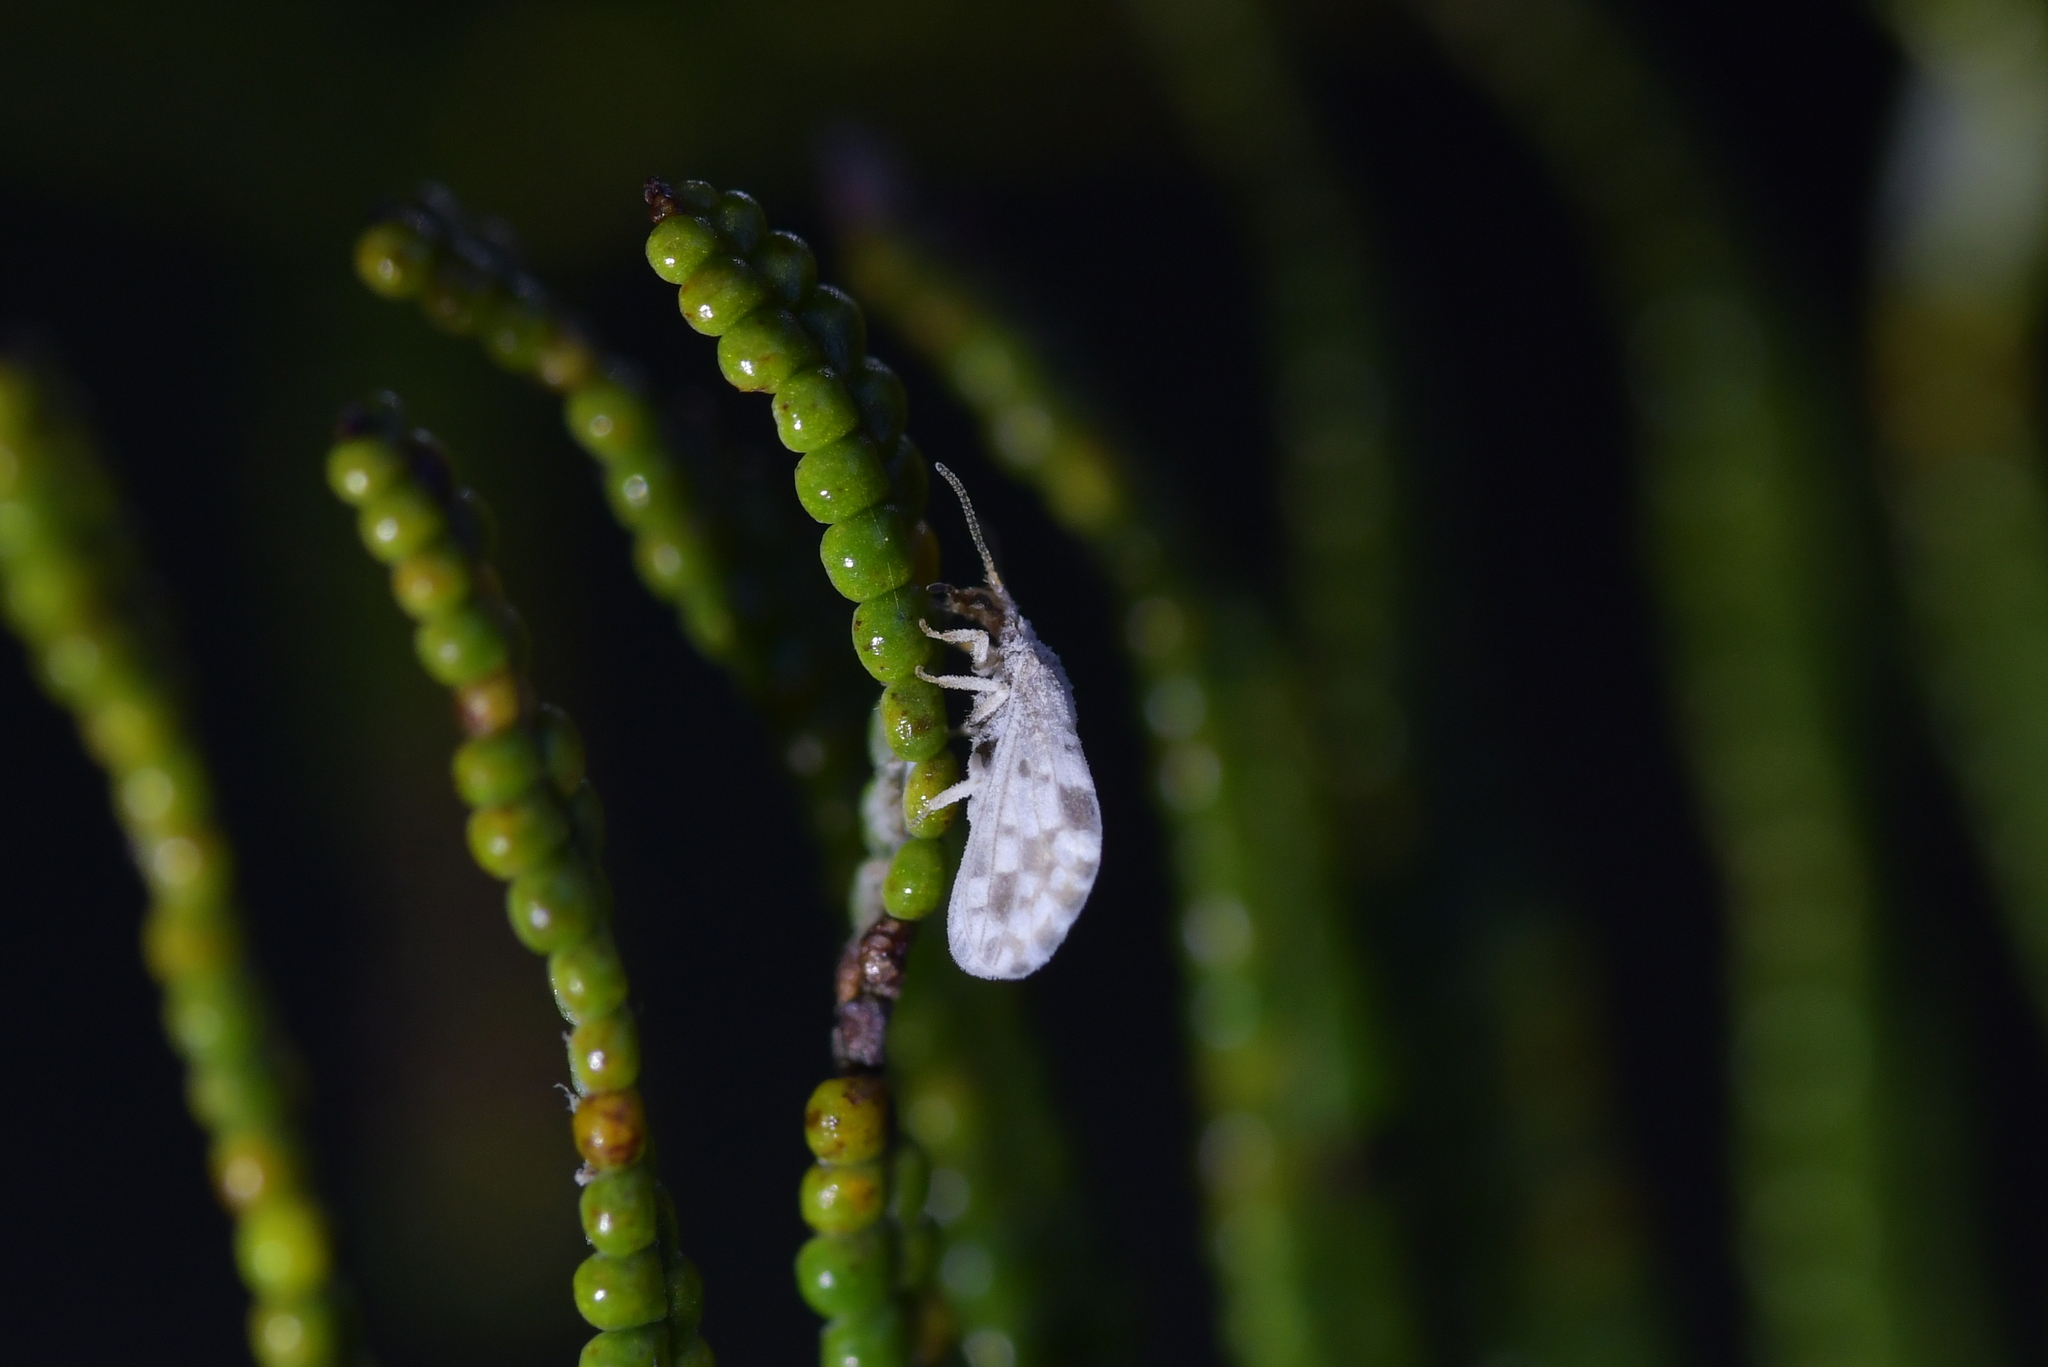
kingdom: Animalia
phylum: Arthropoda
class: Insecta
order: Neuroptera
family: Coniopterygidae
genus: Heteroconis
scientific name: Heteroconis ornata
